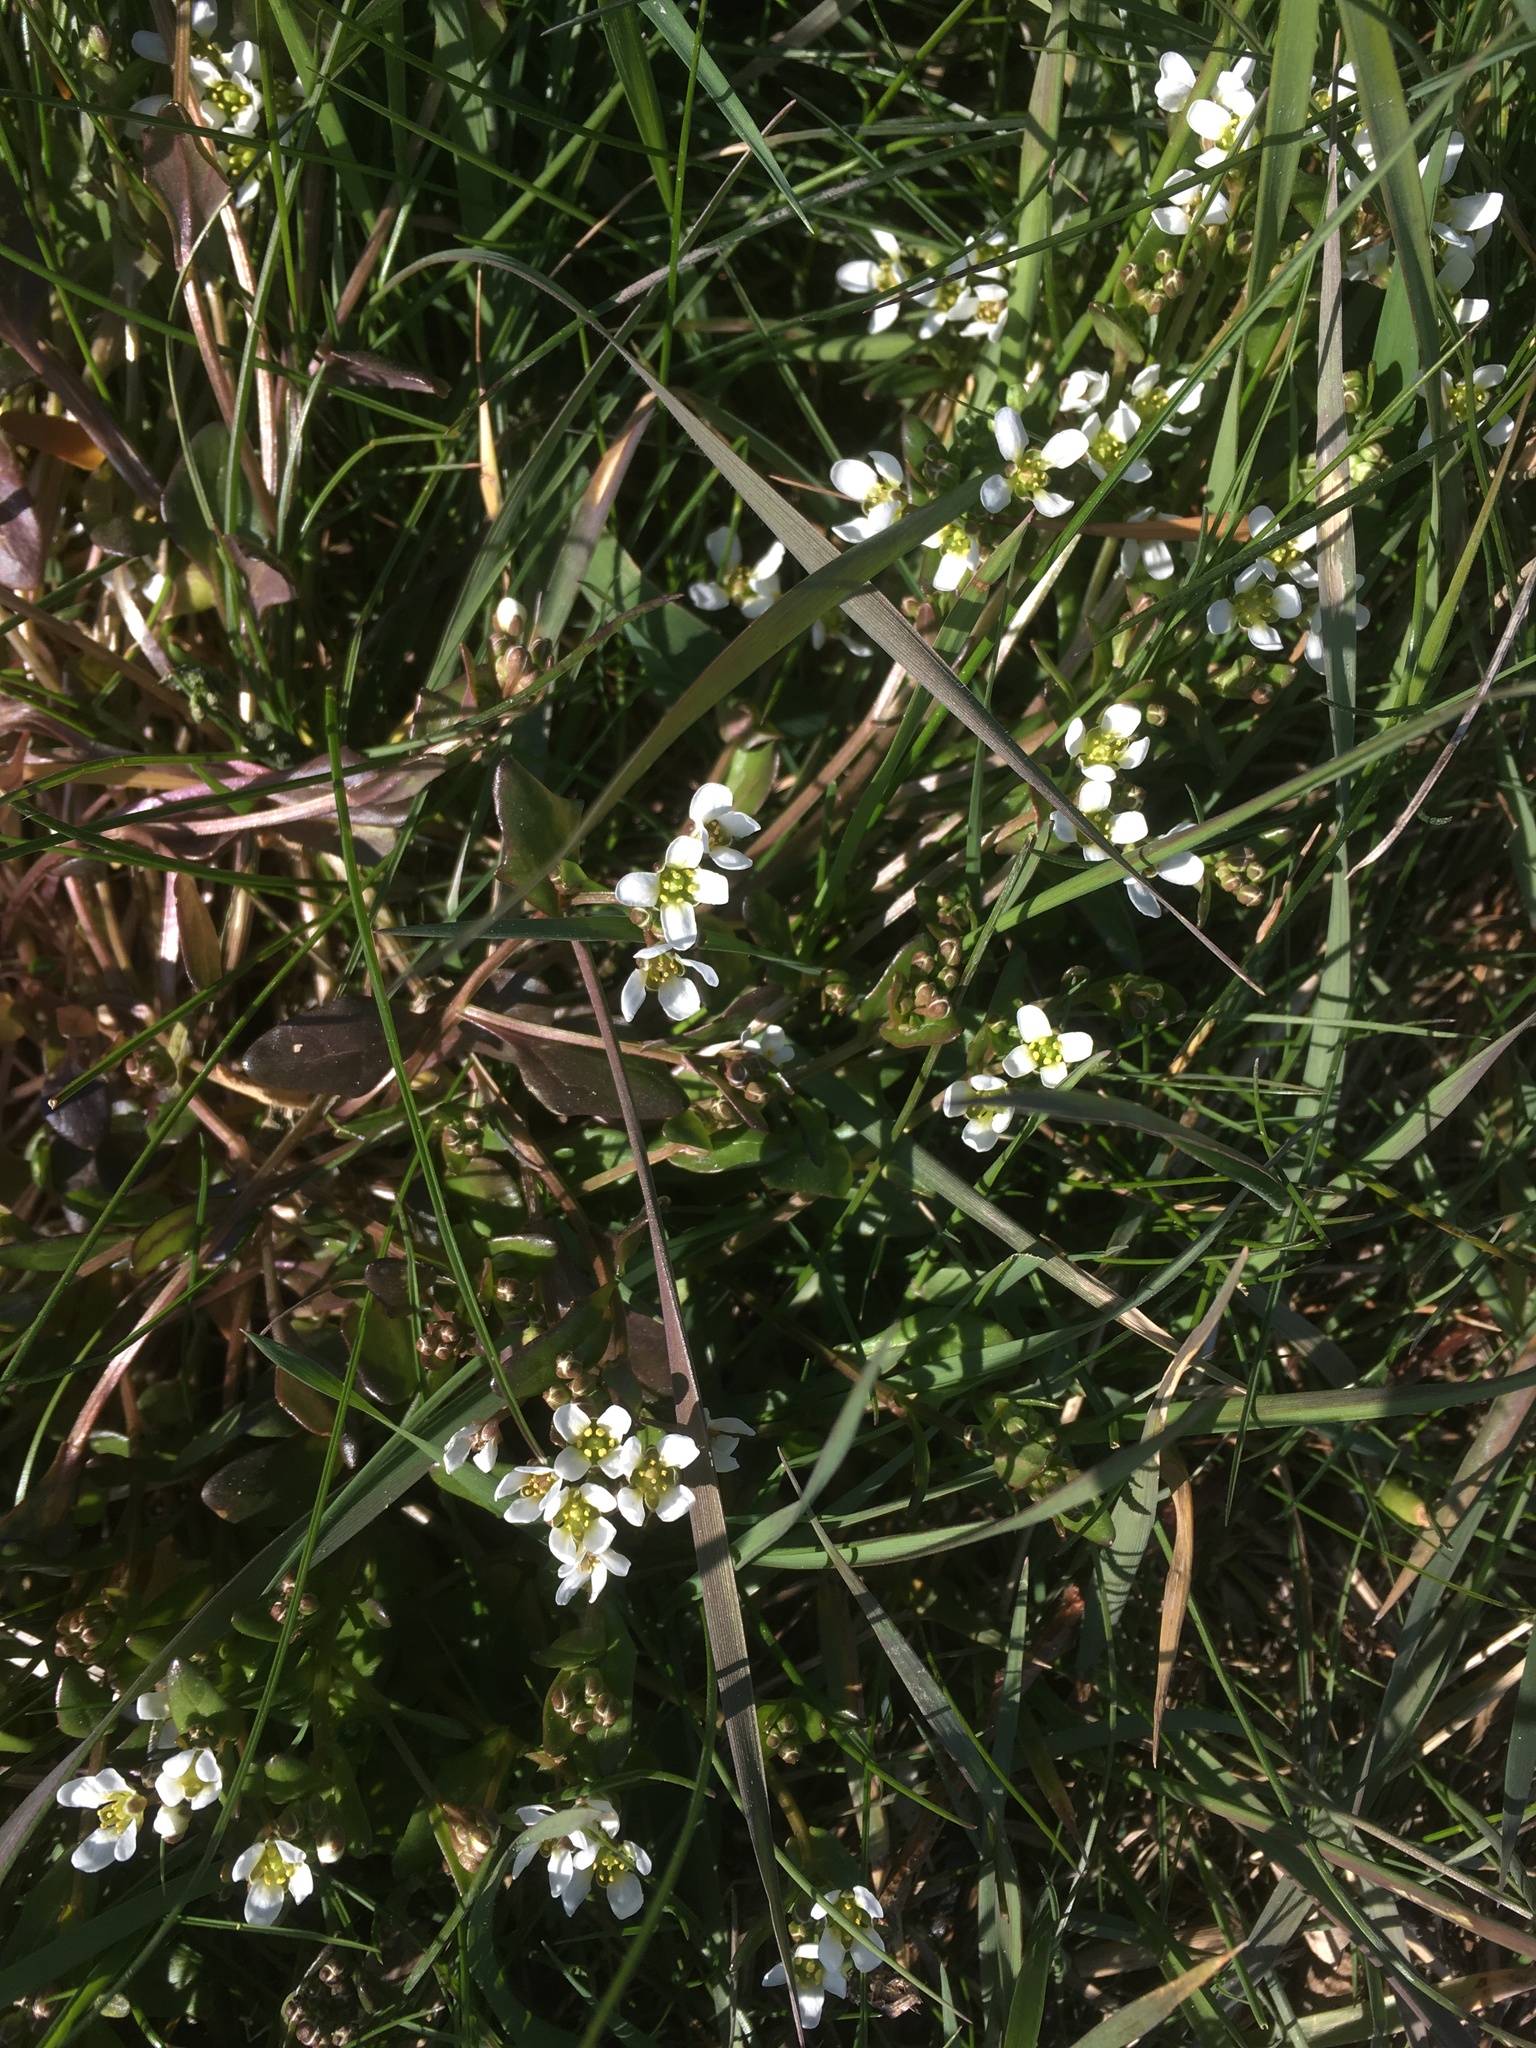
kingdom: Plantae
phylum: Tracheophyta
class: Magnoliopsida
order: Brassicales
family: Brassicaceae
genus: Cochlearia
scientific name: Cochlearia anglica
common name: English scurvygrass
